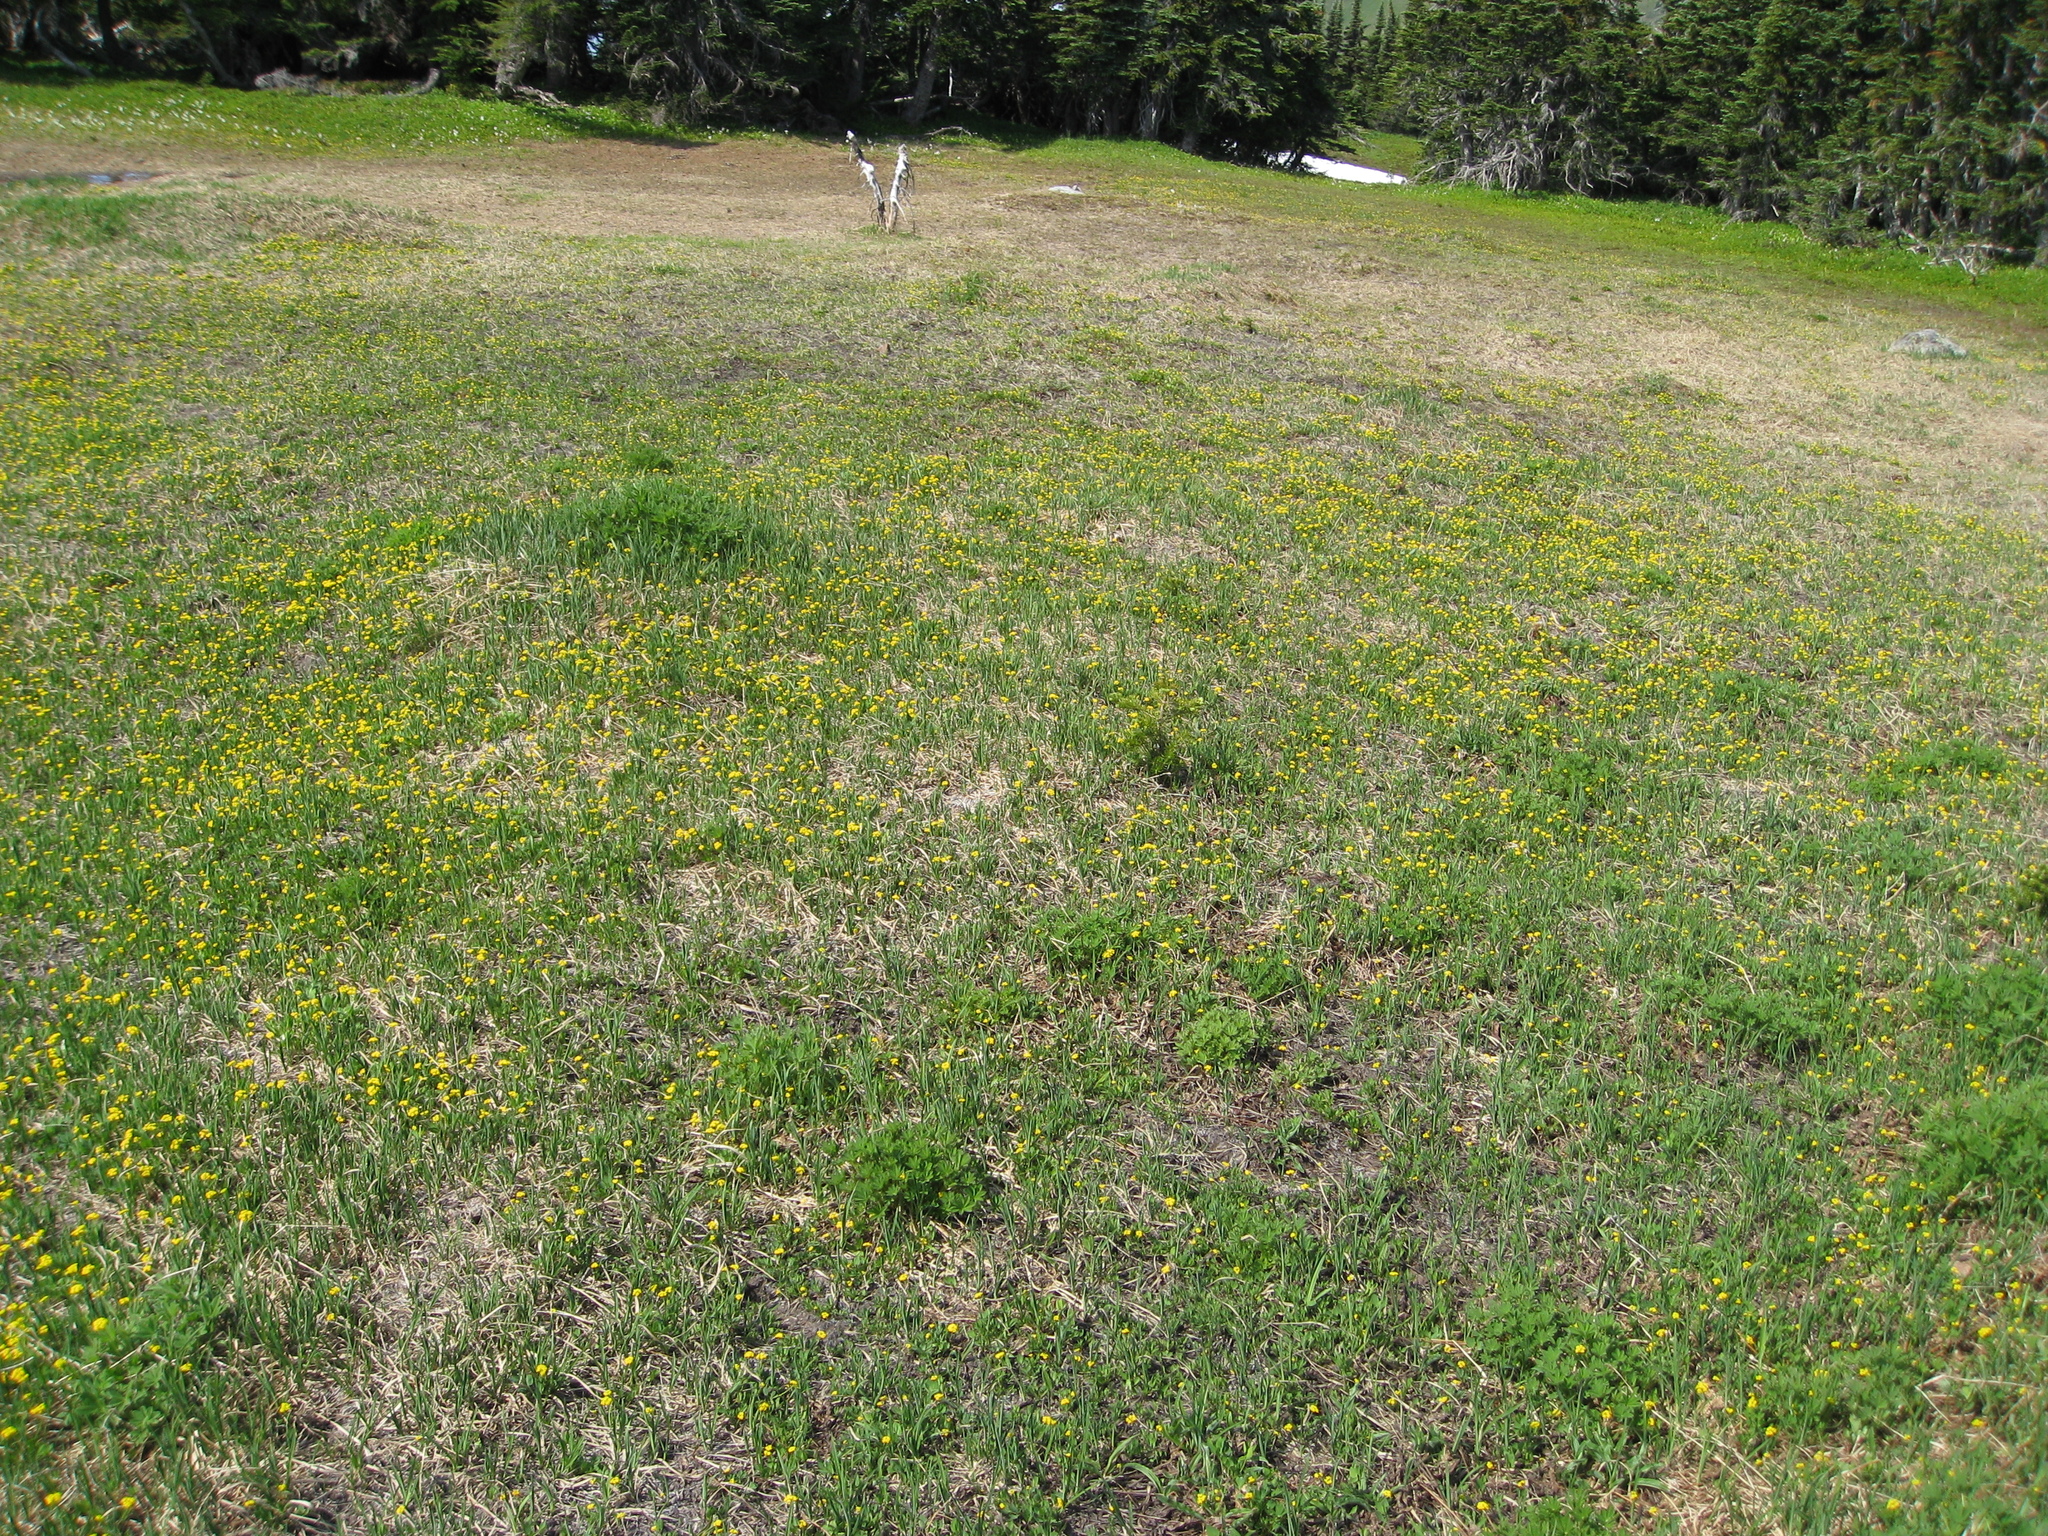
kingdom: Plantae
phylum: Tracheophyta
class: Magnoliopsida
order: Ranunculales
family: Ranunculaceae
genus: Ranunculus
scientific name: Ranunculus suksdorfii
